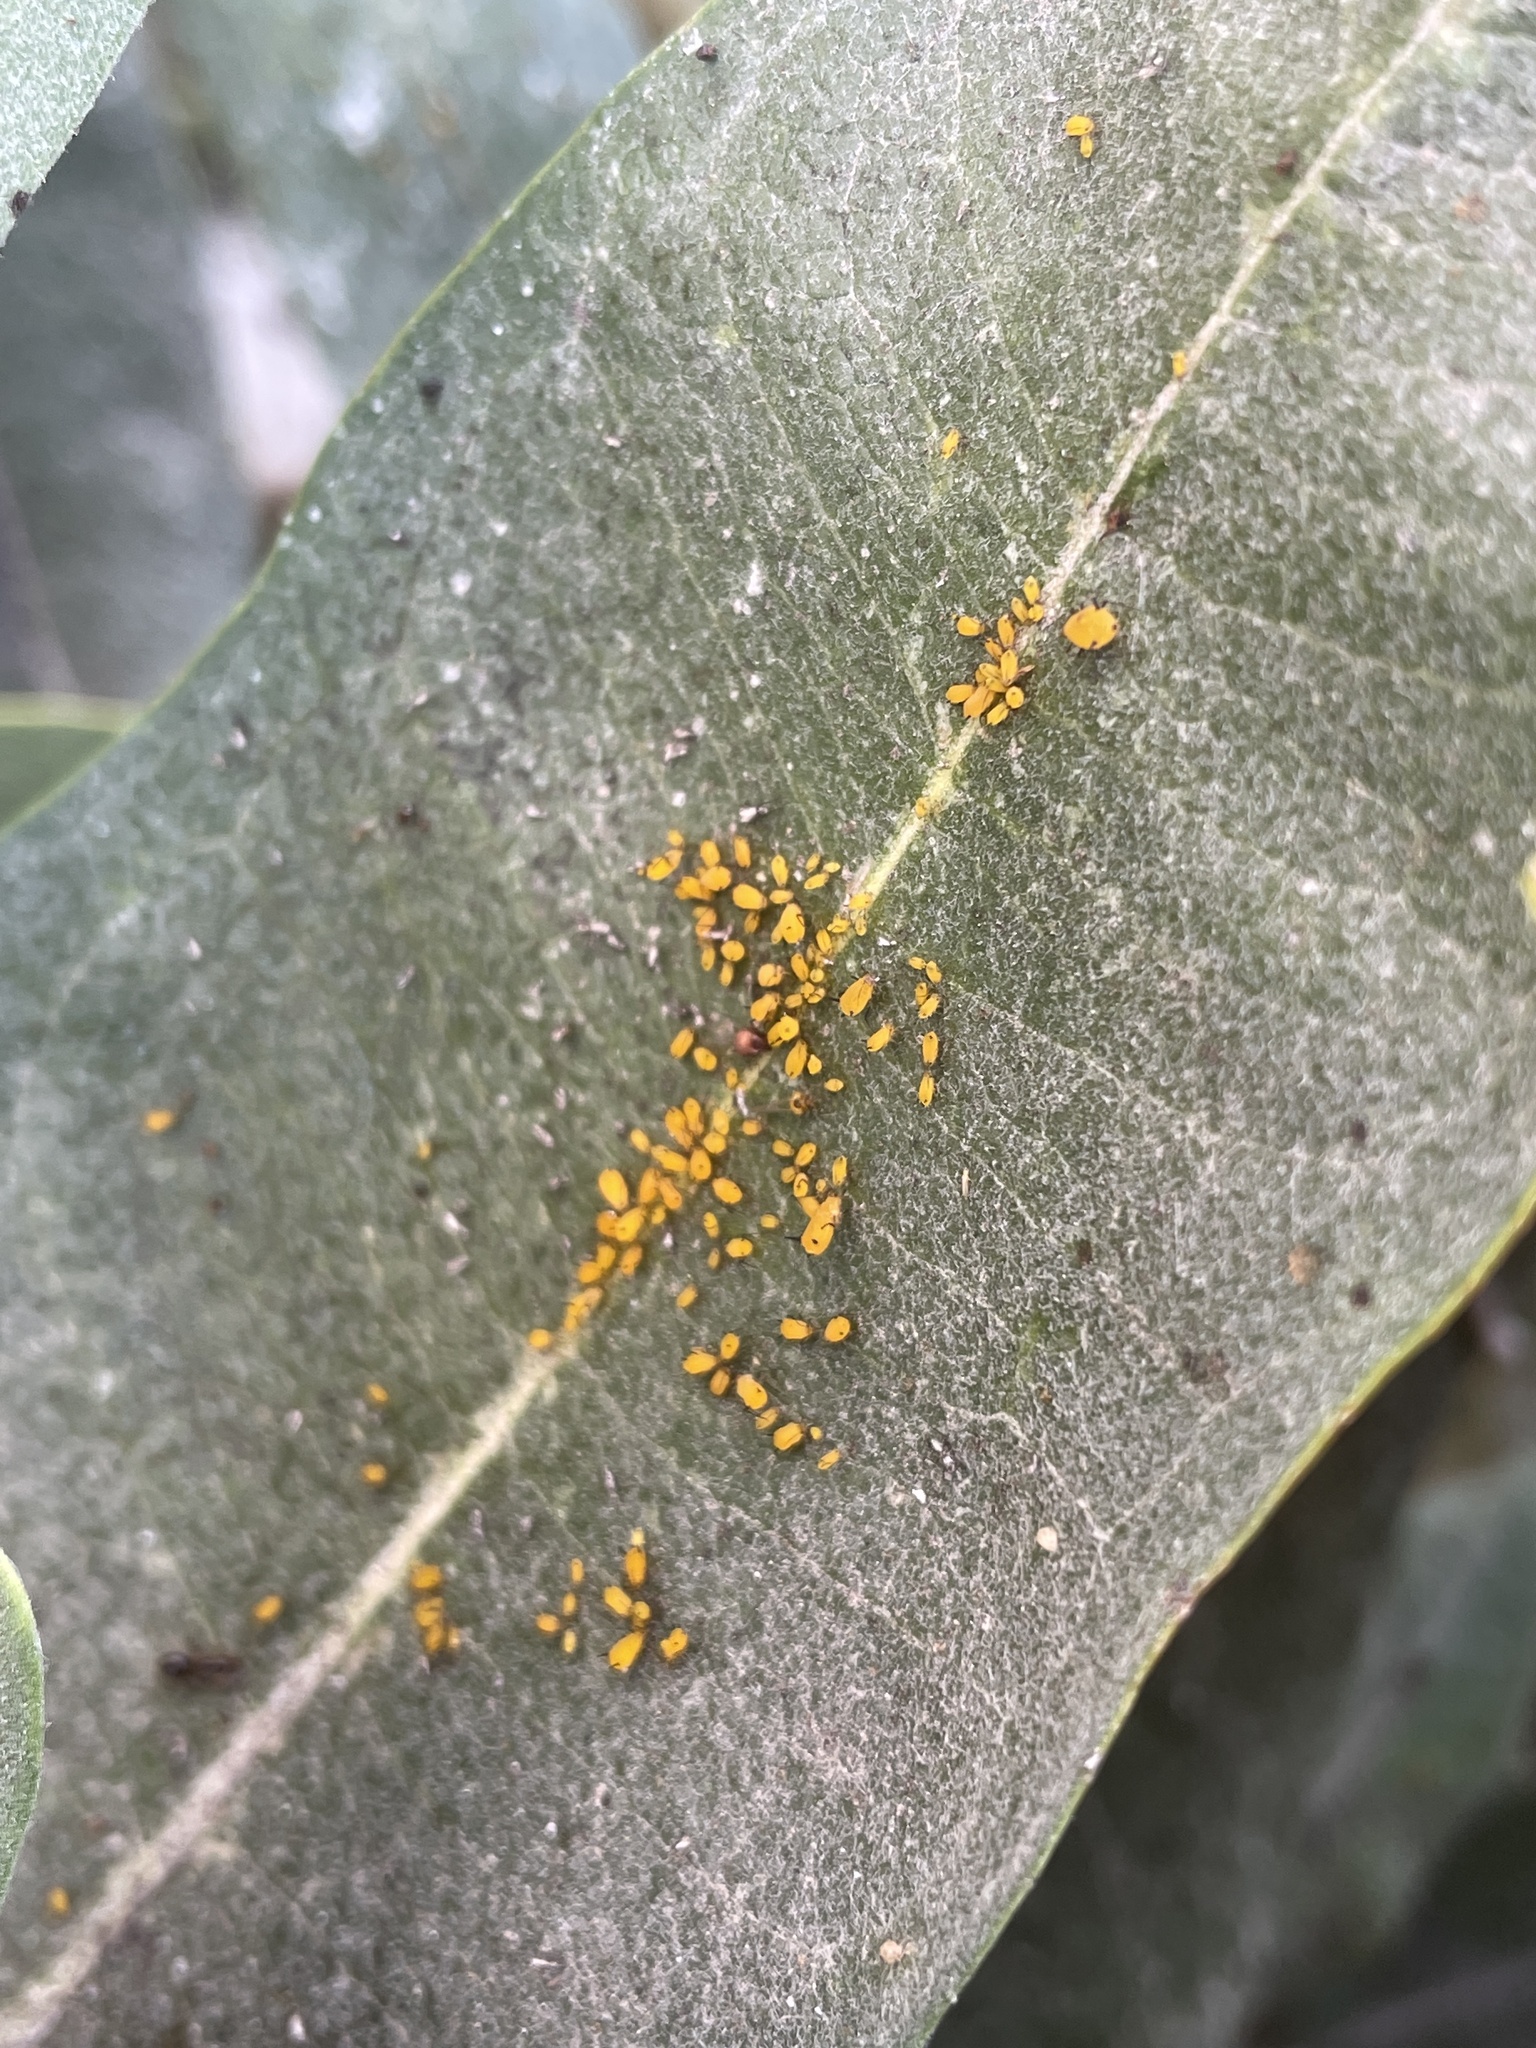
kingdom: Animalia
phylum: Arthropoda
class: Insecta
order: Hemiptera
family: Aphididae
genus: Aphis
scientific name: Aphis nerii
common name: Oleander aphid
